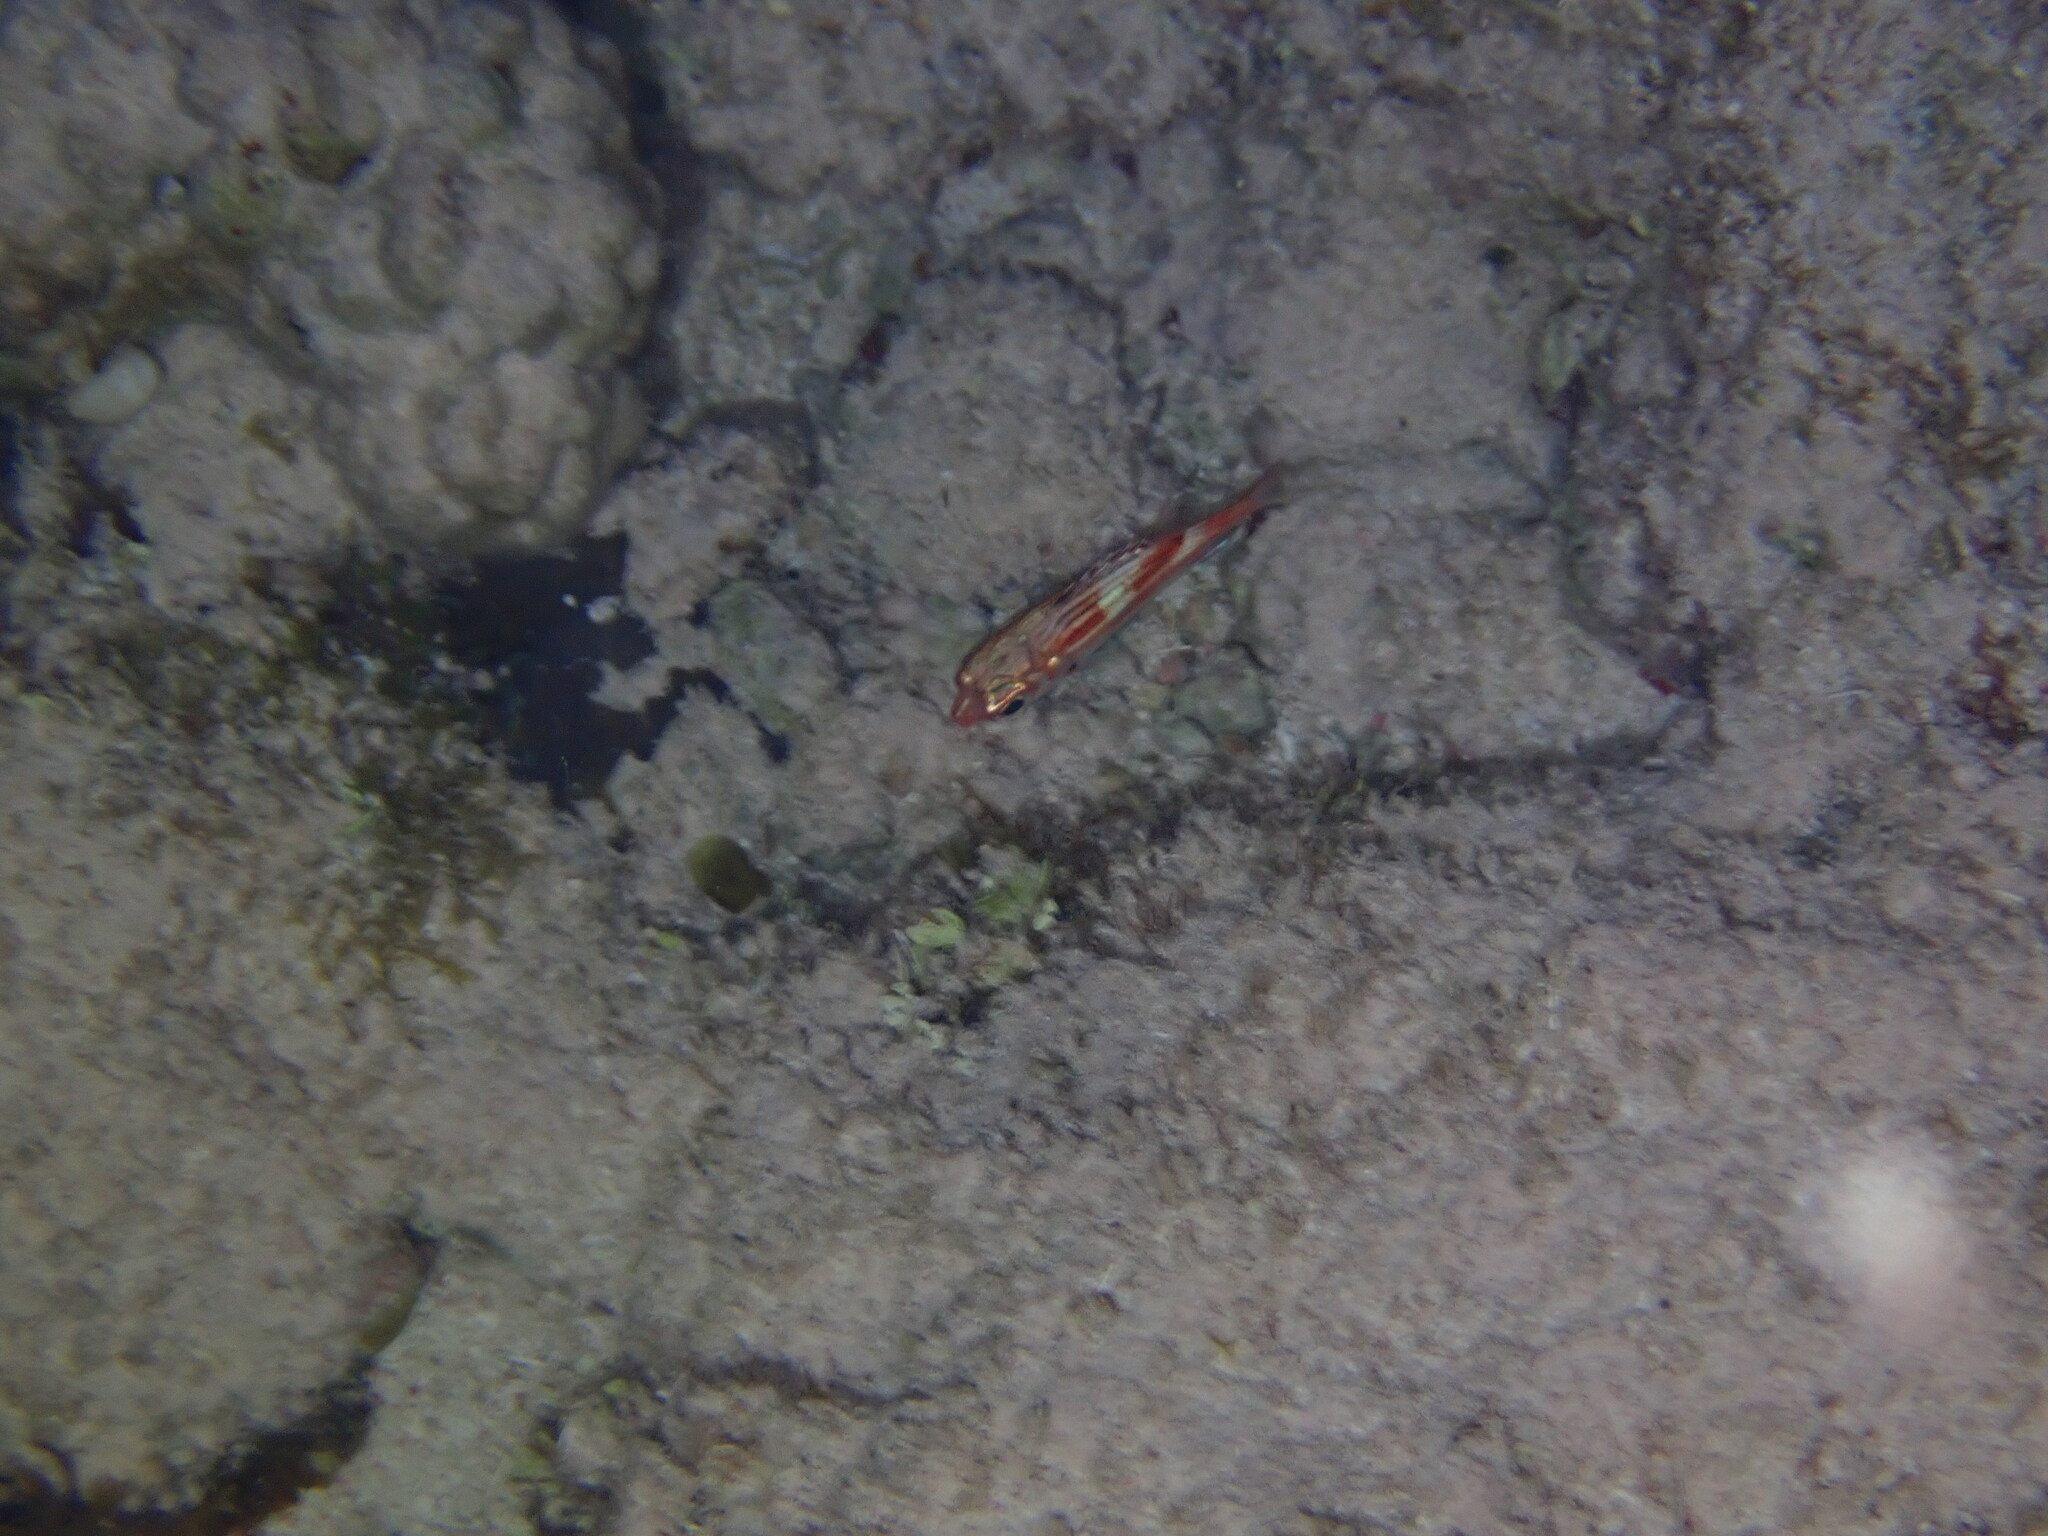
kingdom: Animalia
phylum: Chordata
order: Beryciformes
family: Holocentridae
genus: Neoniphon
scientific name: Neoniphon vexillarium
